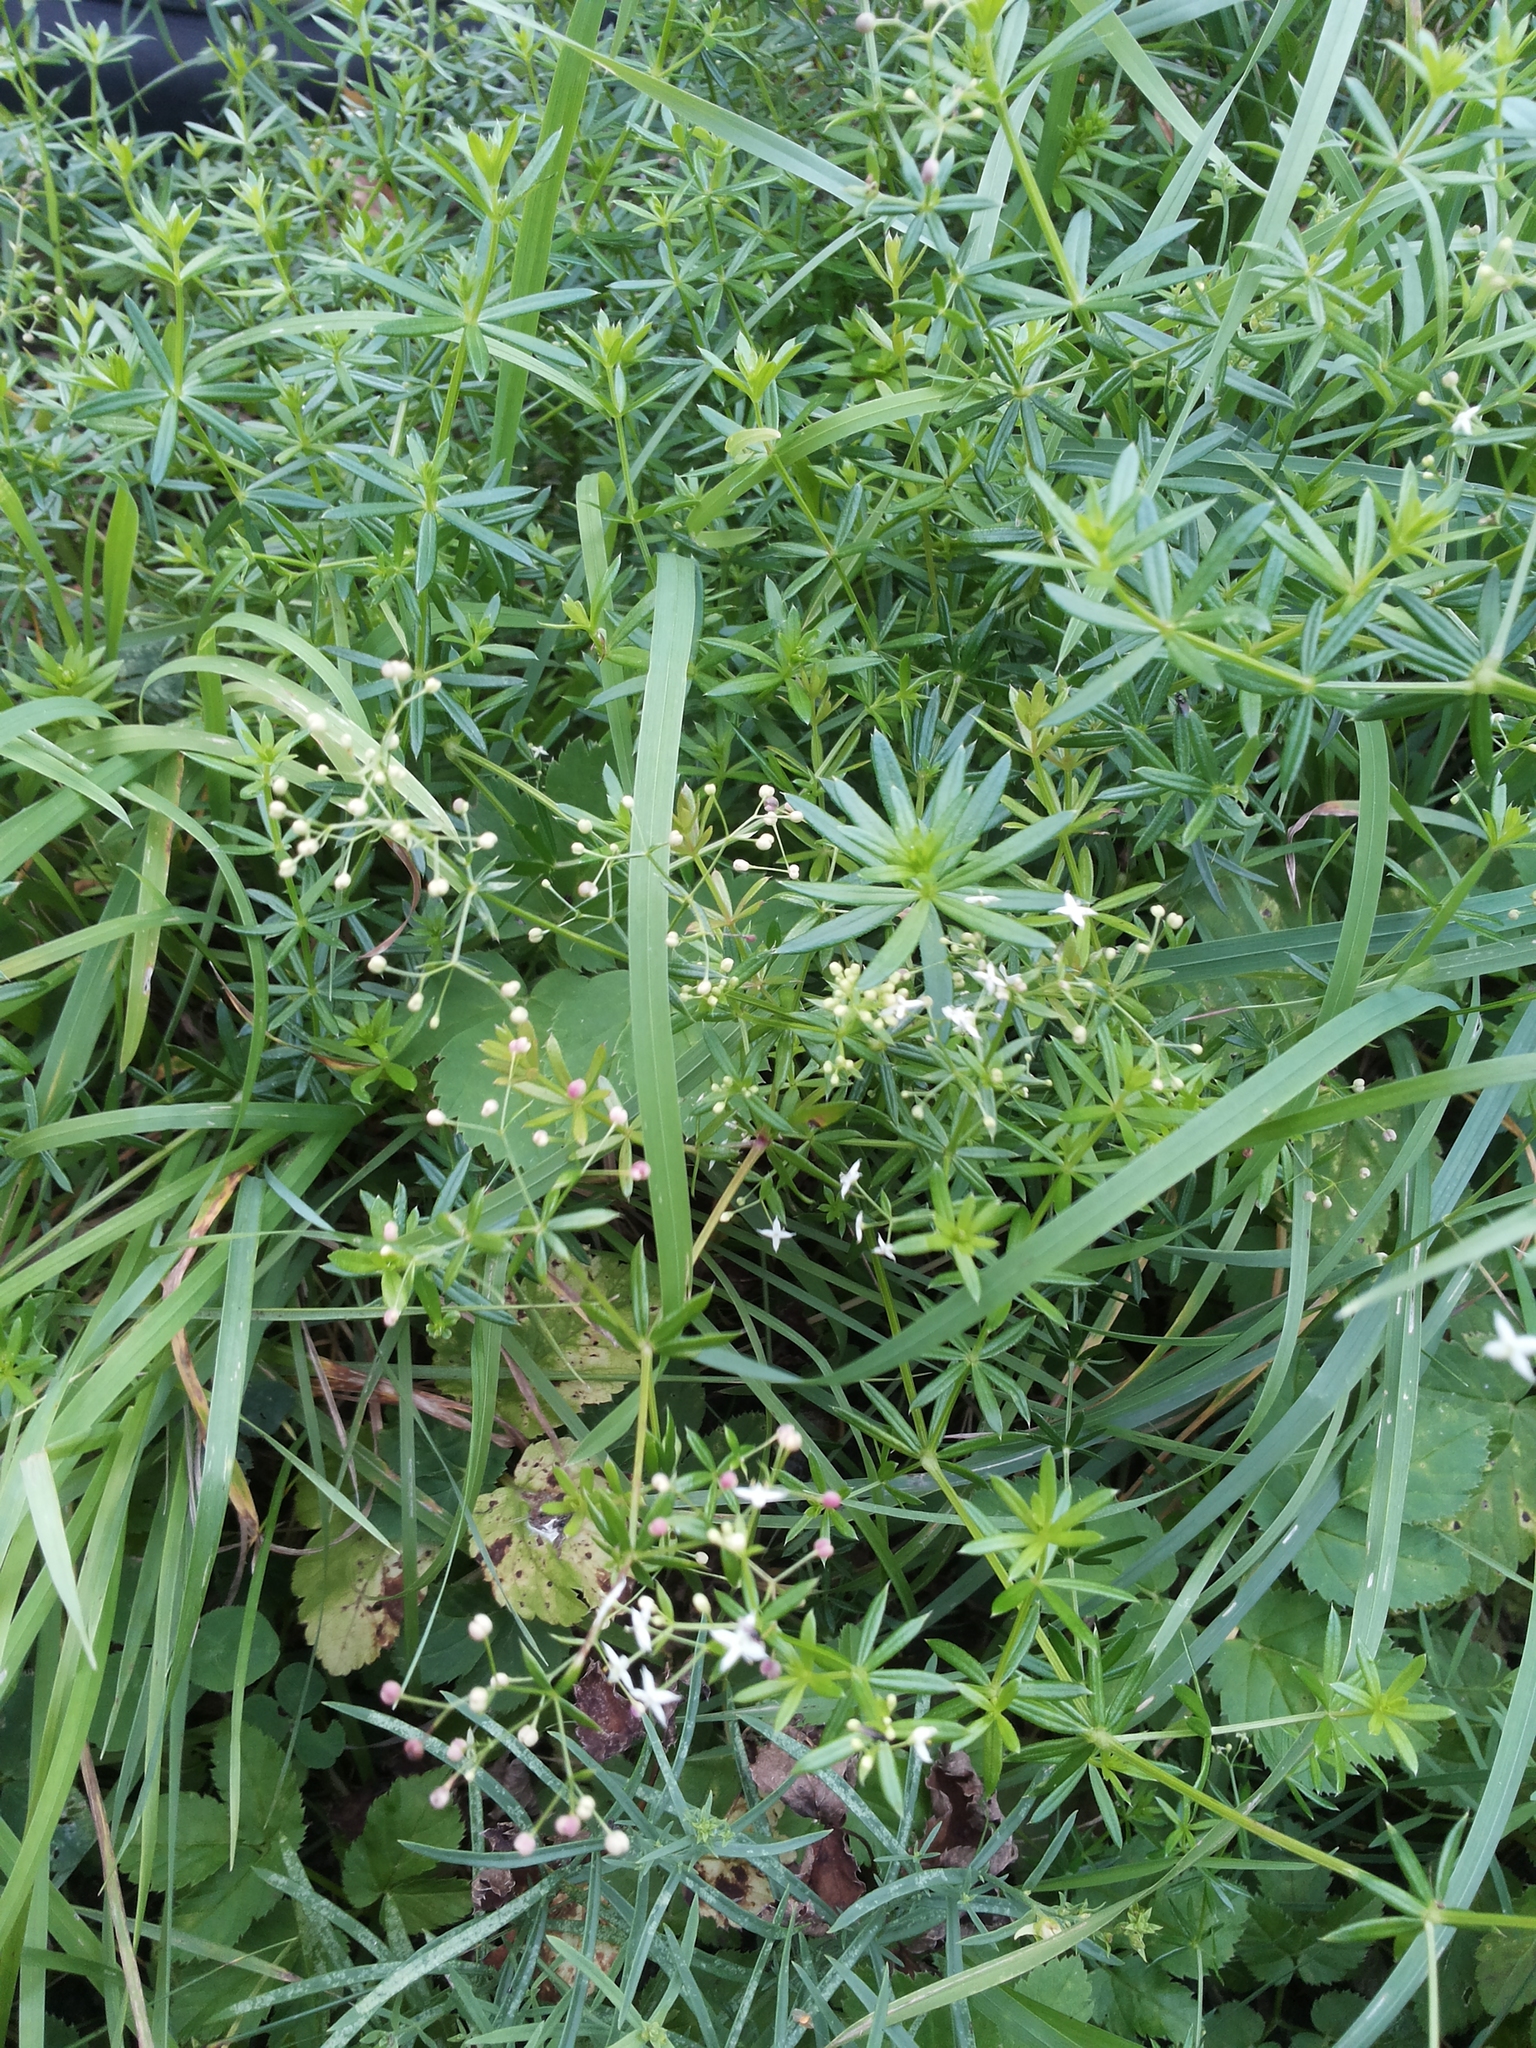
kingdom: Plantae
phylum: Tracheophyta
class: Magnoliopsida
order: Gentianales
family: Rubiaceae
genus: Galium
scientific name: Galium album
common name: White bedstraw
